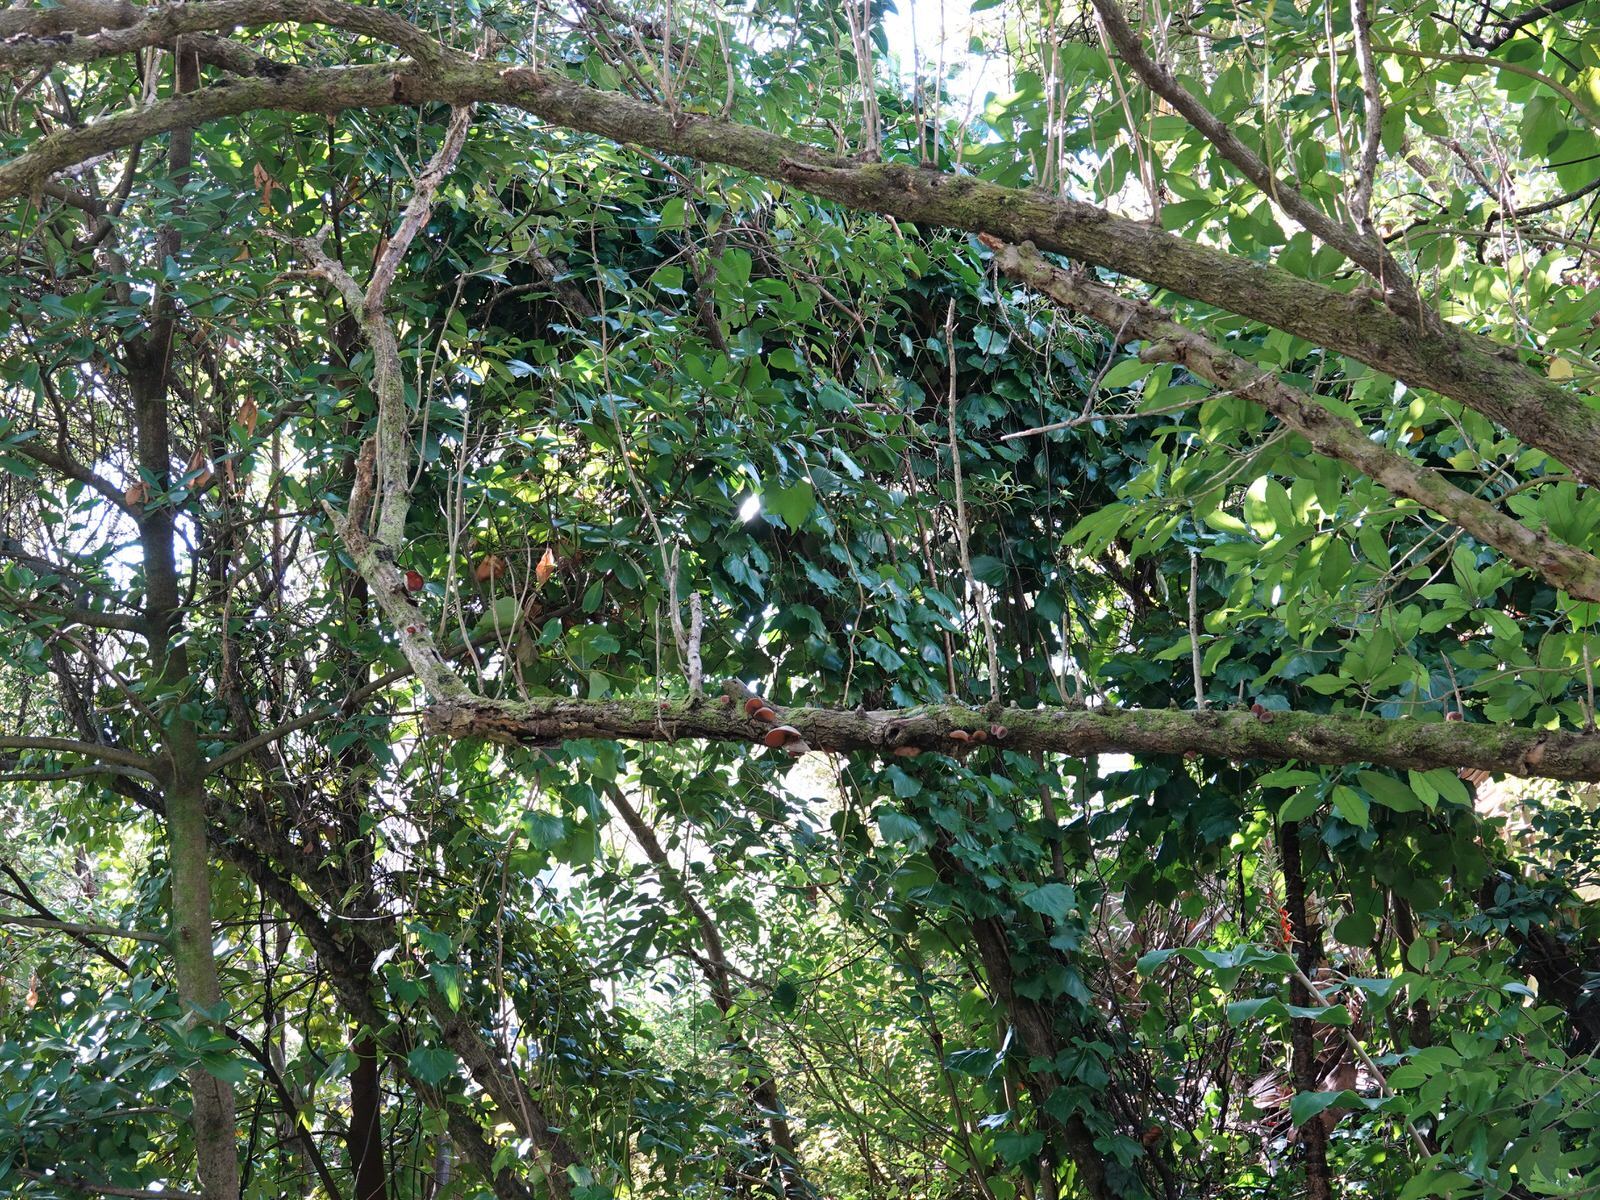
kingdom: Fungi
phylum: Basidiomycota
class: Agaricomycetes
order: Auriculariales
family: Auriculariaceae
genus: Auricularia
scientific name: Auricularia cornea
